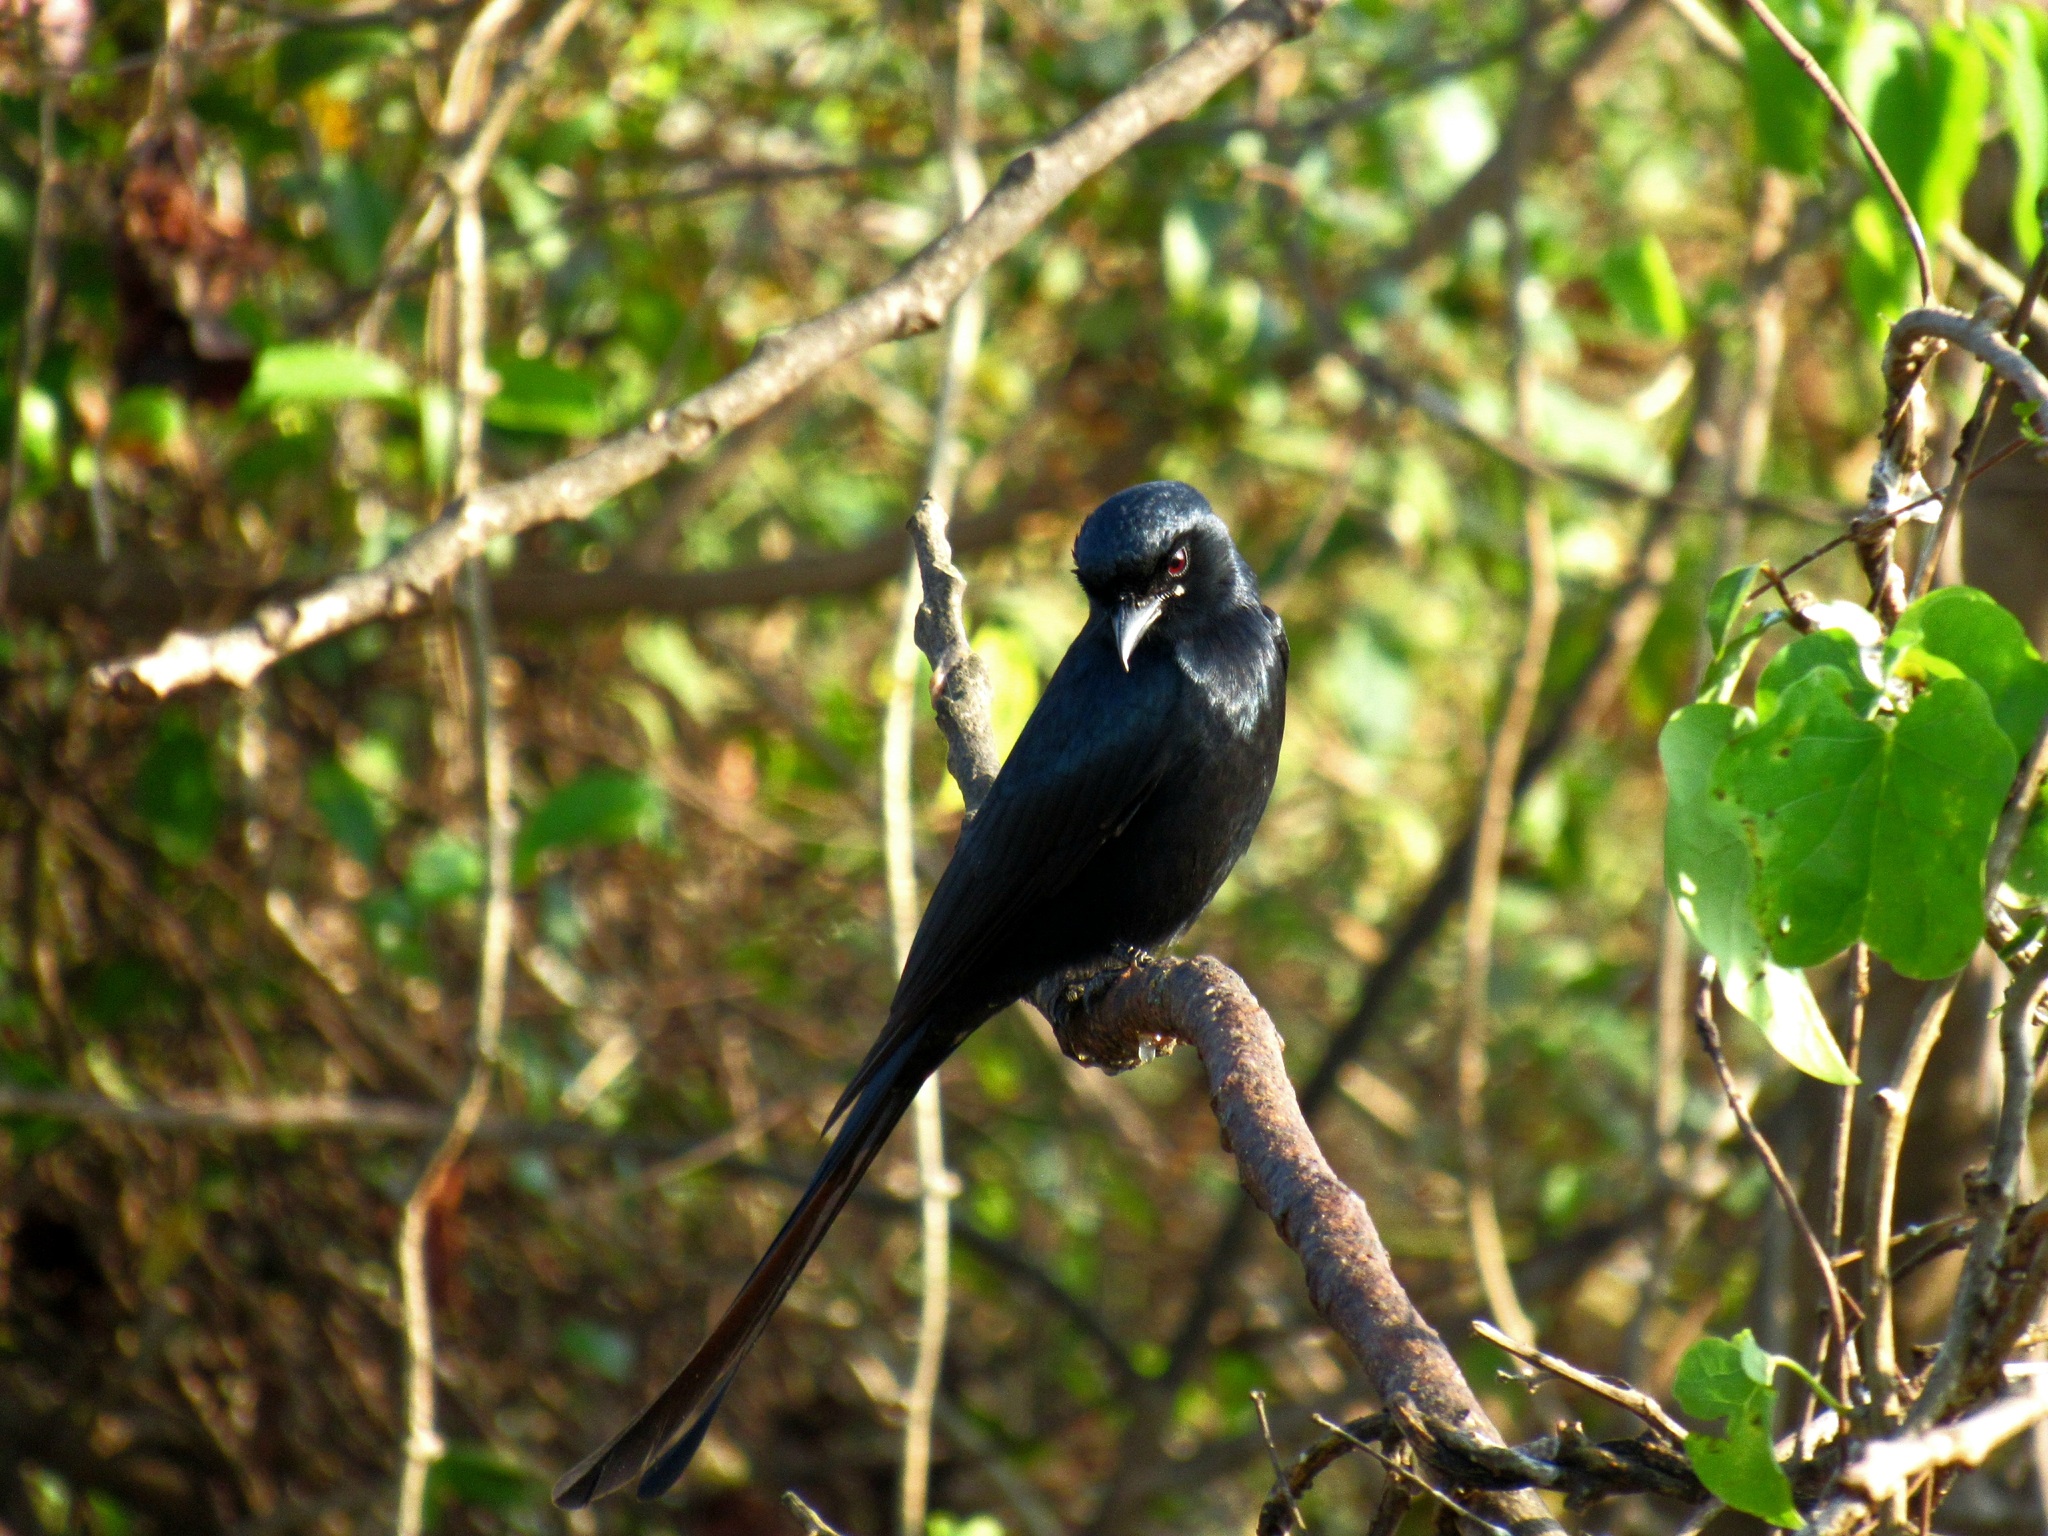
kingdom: Animalia
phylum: Chordata
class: Aves
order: Passeriformes
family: Dicruridae
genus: Dicrurus
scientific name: Dicrurus macrocercus
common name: Black drongo
